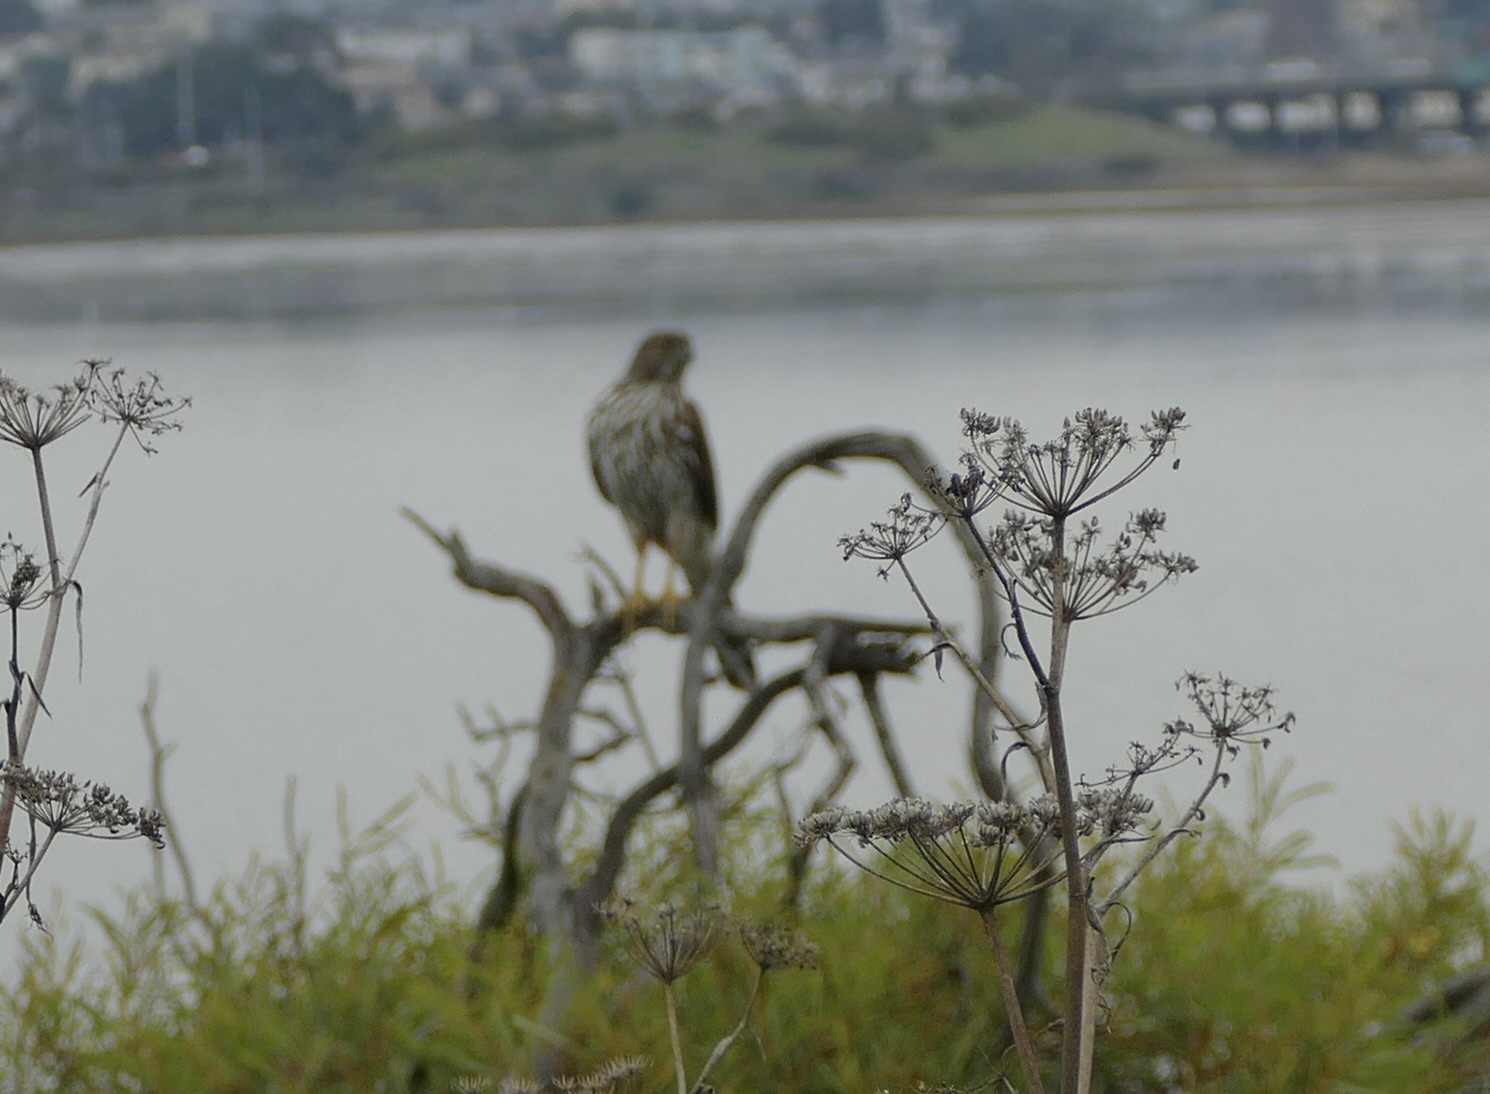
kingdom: Animalia
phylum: Chordata
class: Aves
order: Accipitriformes
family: Accipitridae
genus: Accipiter
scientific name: Accipiter cooperii
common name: Cooper's hawk
